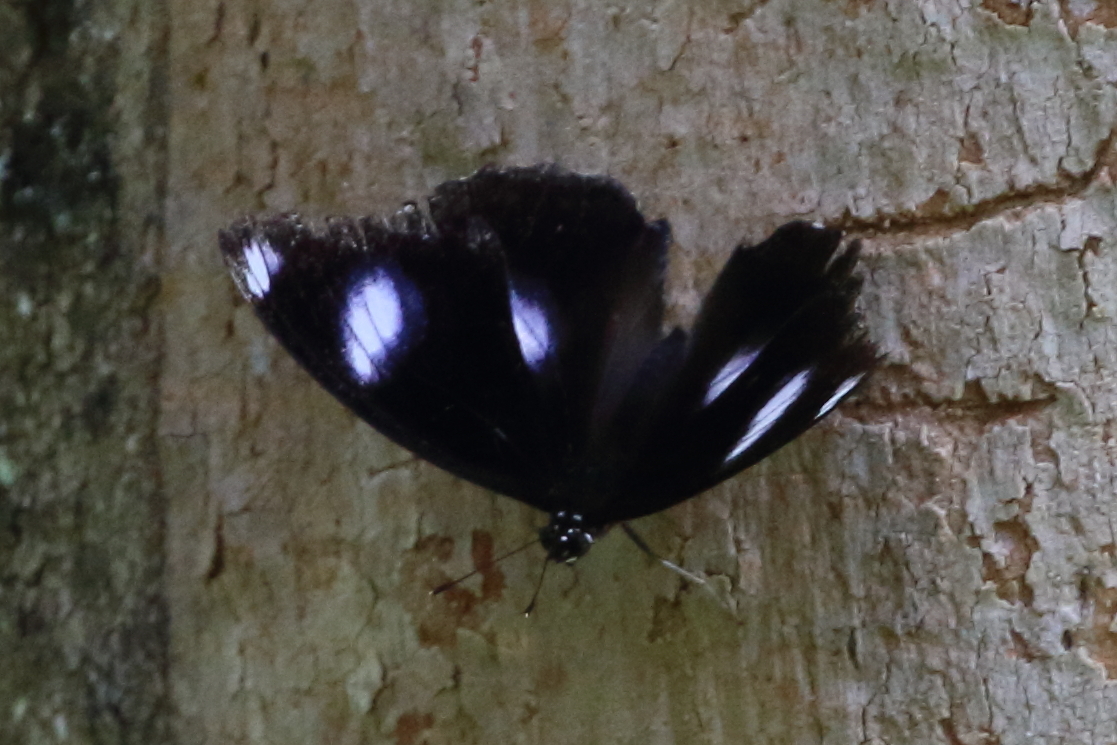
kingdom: Animalia
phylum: Arthropoda
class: Insecta
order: Lepidoptera
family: Nymphalidae
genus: Hypolimnas
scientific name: Hypolimnas bolina
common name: Great eggfly
